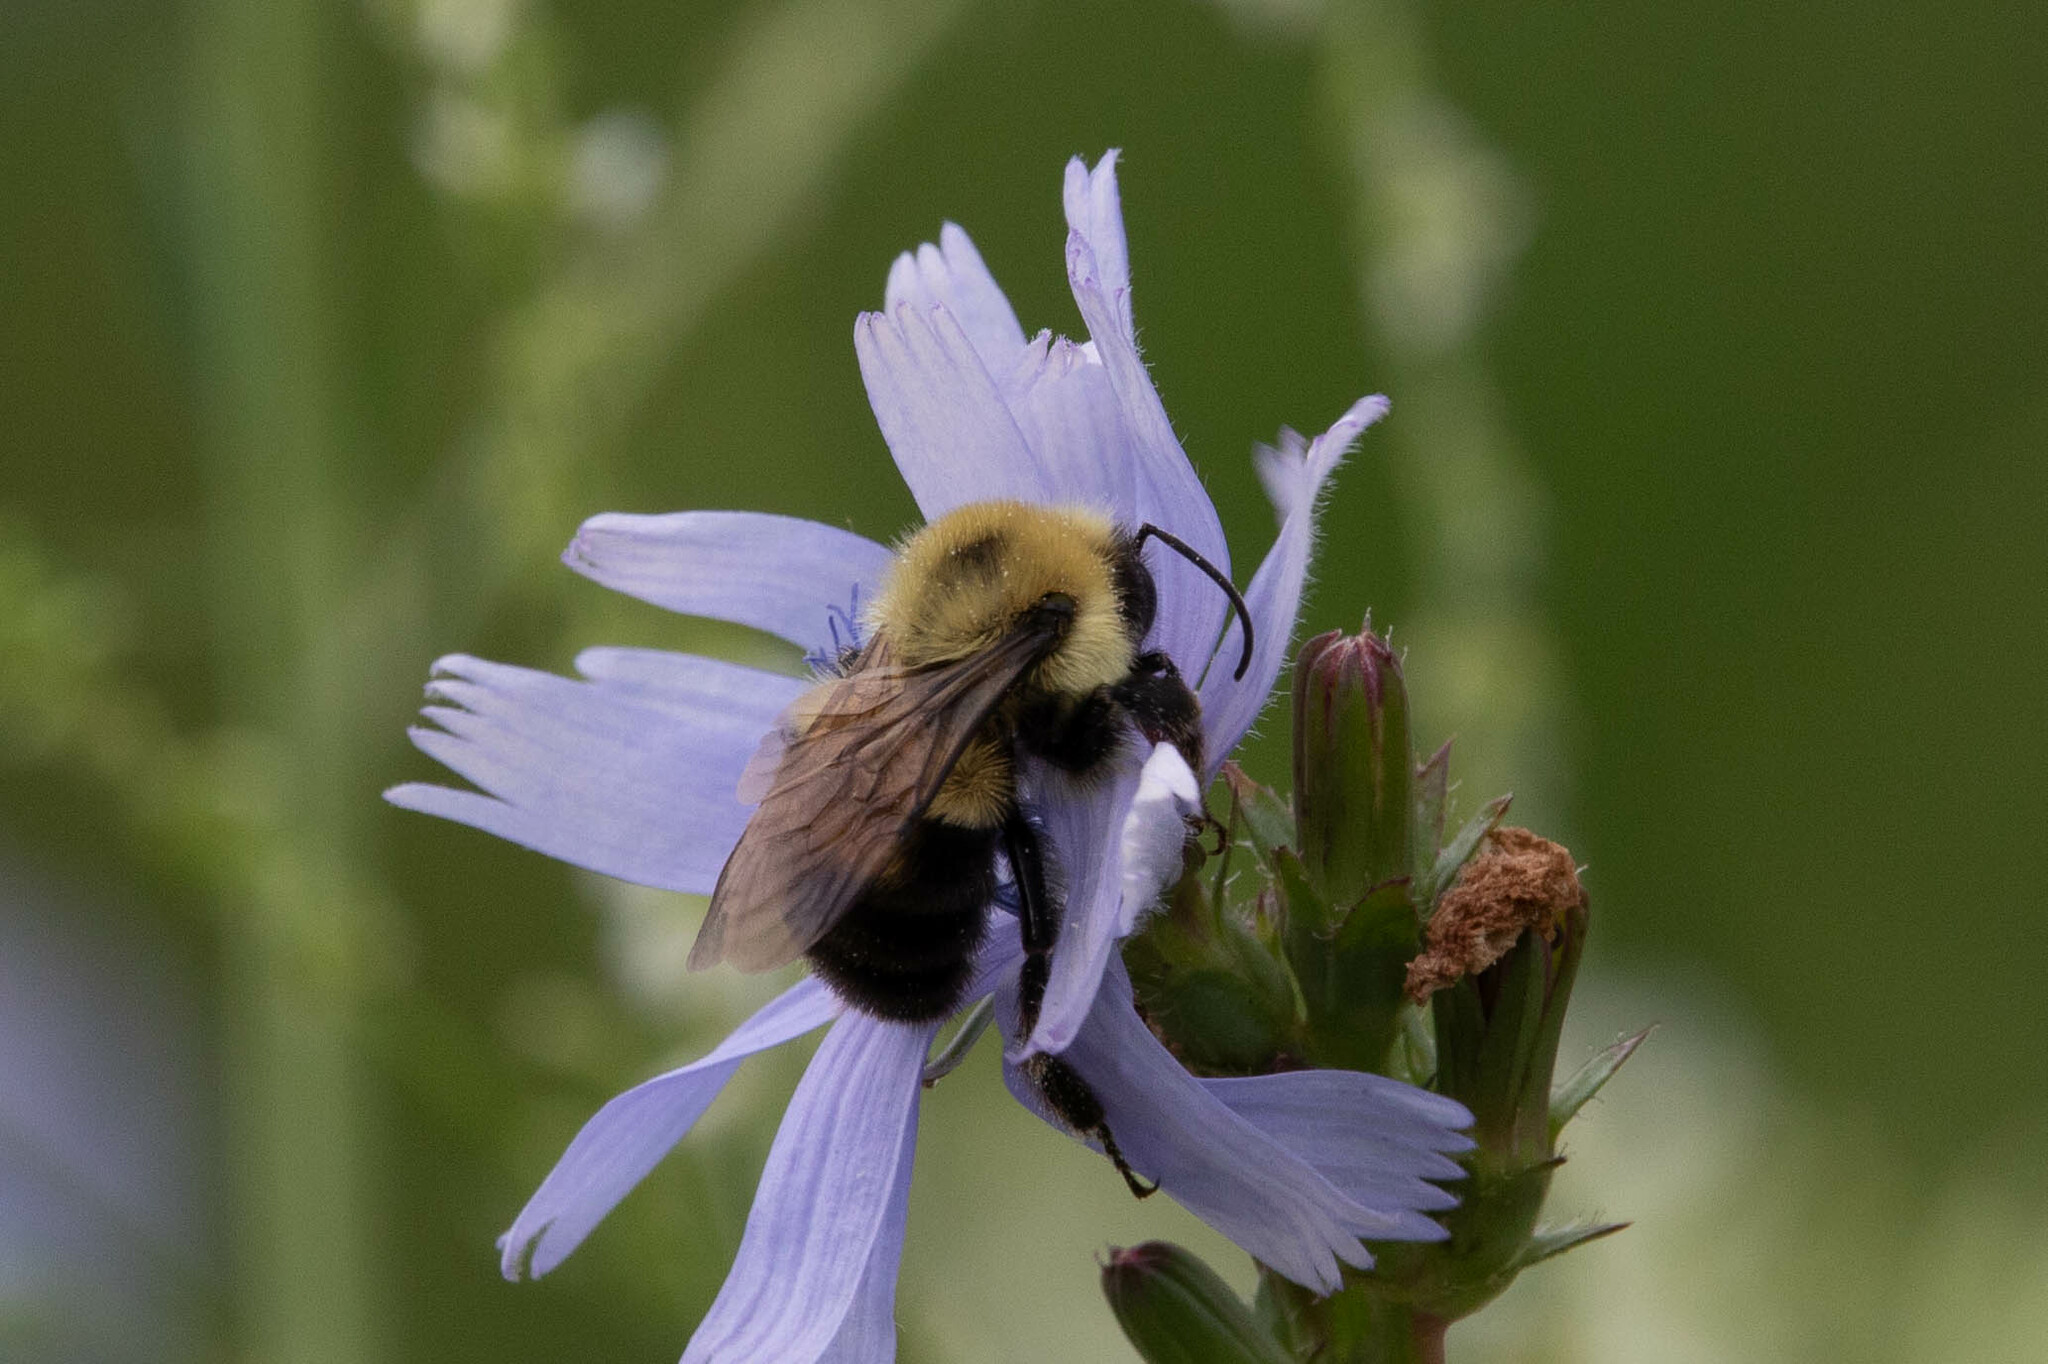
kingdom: Animalia
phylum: Arthropoda
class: Insecta
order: Hymenoptera
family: Apidae
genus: Bombus
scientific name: Bombus bimaculatus
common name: Two-spotted bumble bee
